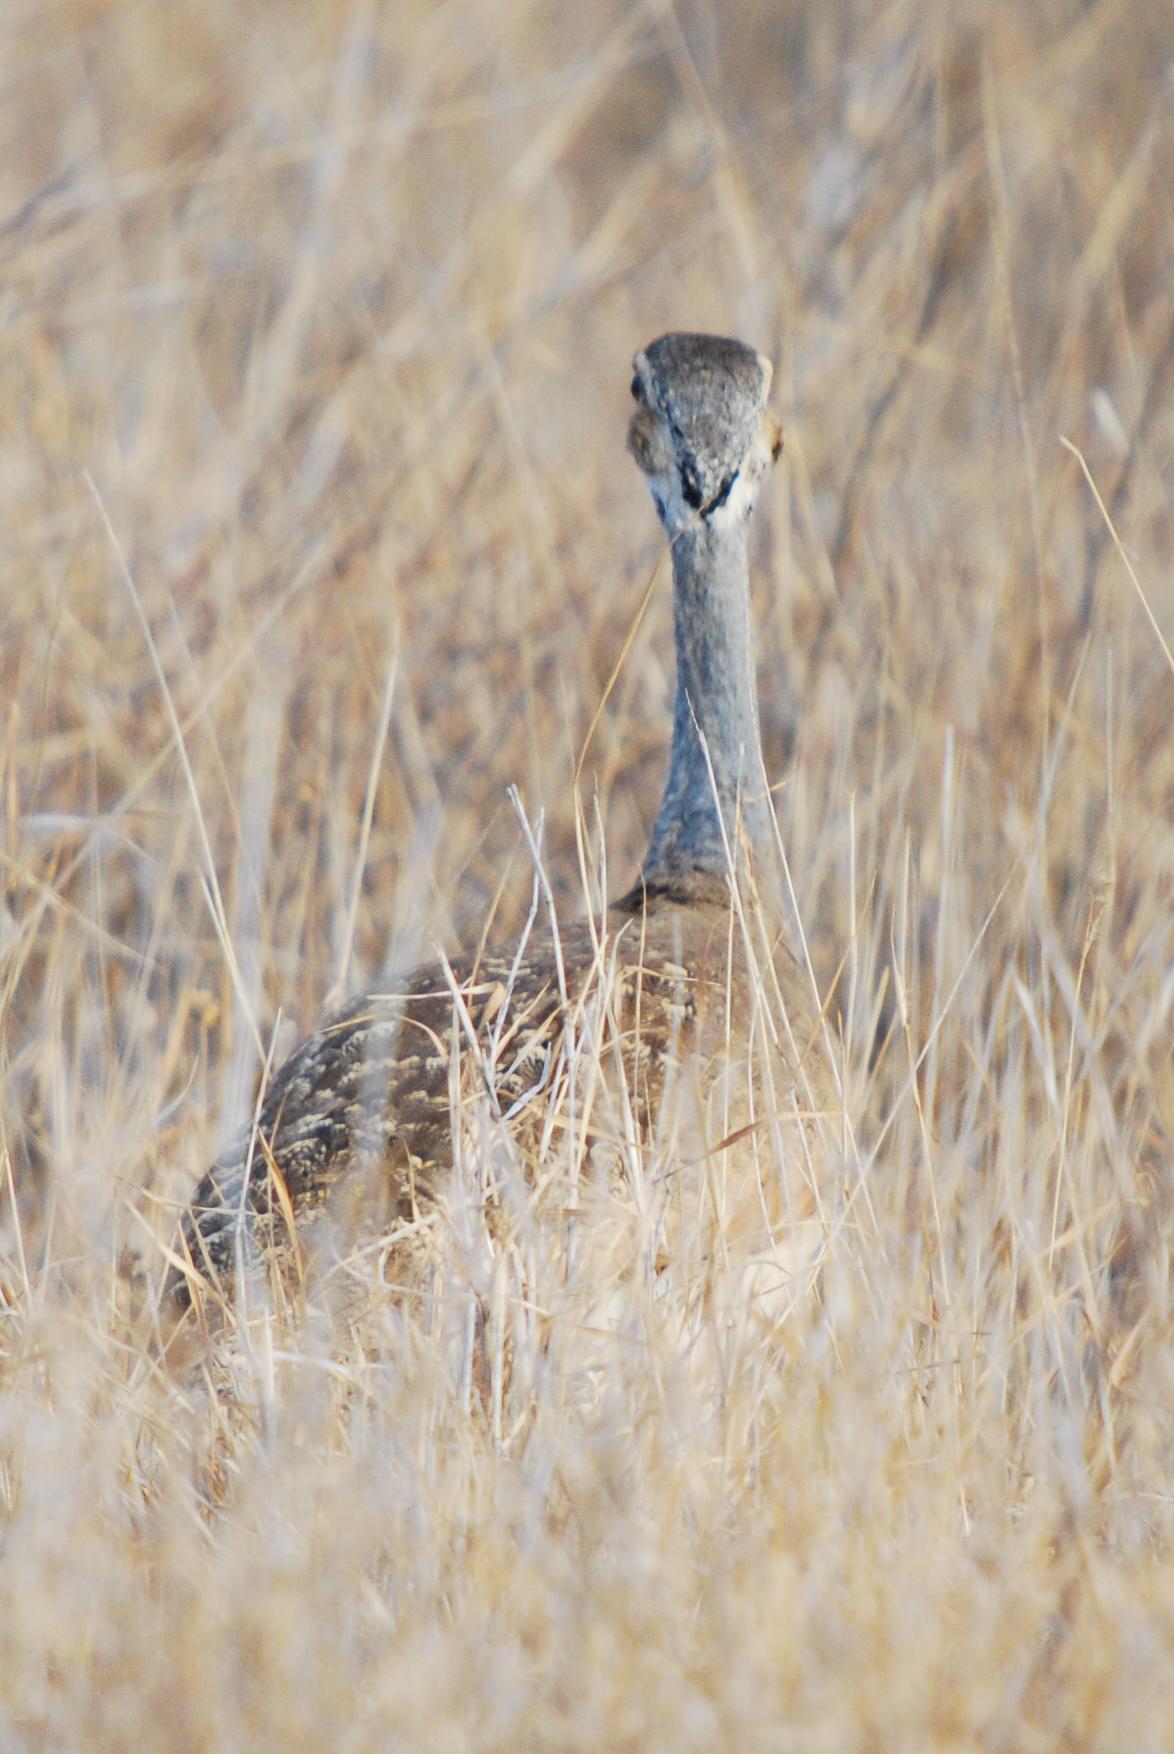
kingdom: Animalia
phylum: Chordata
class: Aves
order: Otidiformes
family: Otididae
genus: Eupodotis
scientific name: Eupodotis senegalensis
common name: White-bellied bustard
